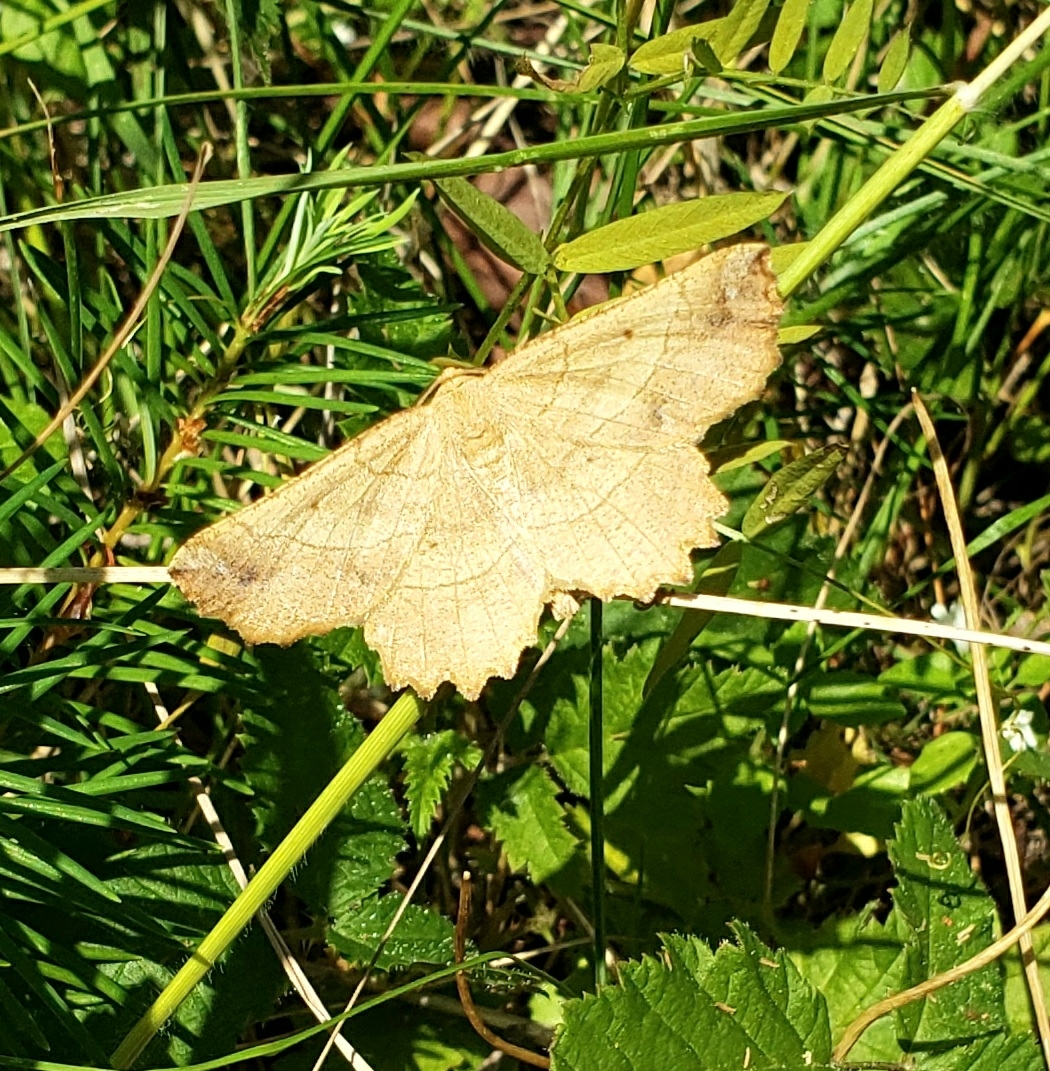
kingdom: Animalia
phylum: Arthropoda
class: Insecta
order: Lepidoptera
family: Geometridae
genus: Euchlaena
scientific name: Euchlaena johnsonaria
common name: Johnson's euchlaena
